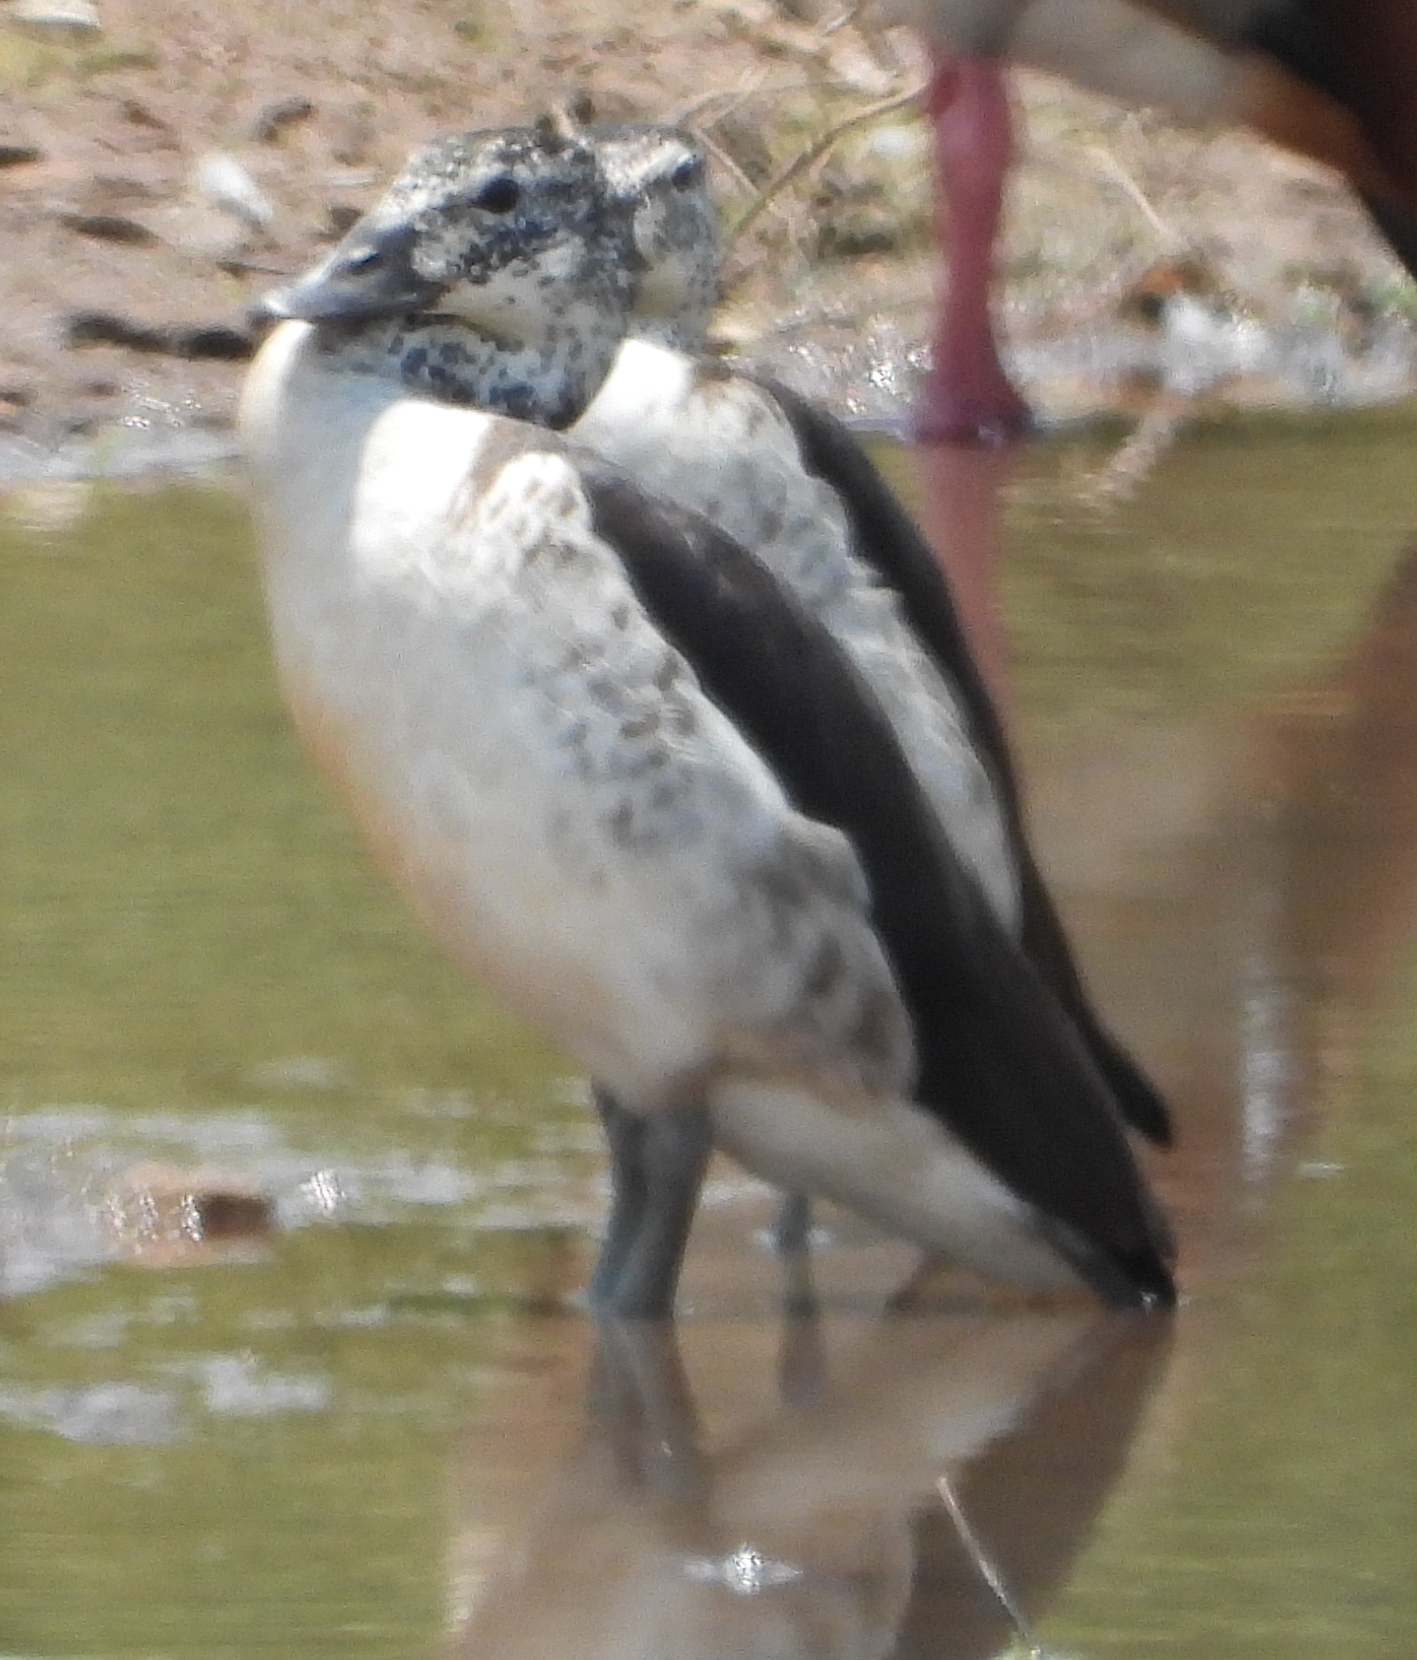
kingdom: Animalia
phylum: Chordata
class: Aves
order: Anseriformes
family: Anatidae
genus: Sarkidiornis
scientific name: Sarkidiornis melanotos
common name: Comb duck
